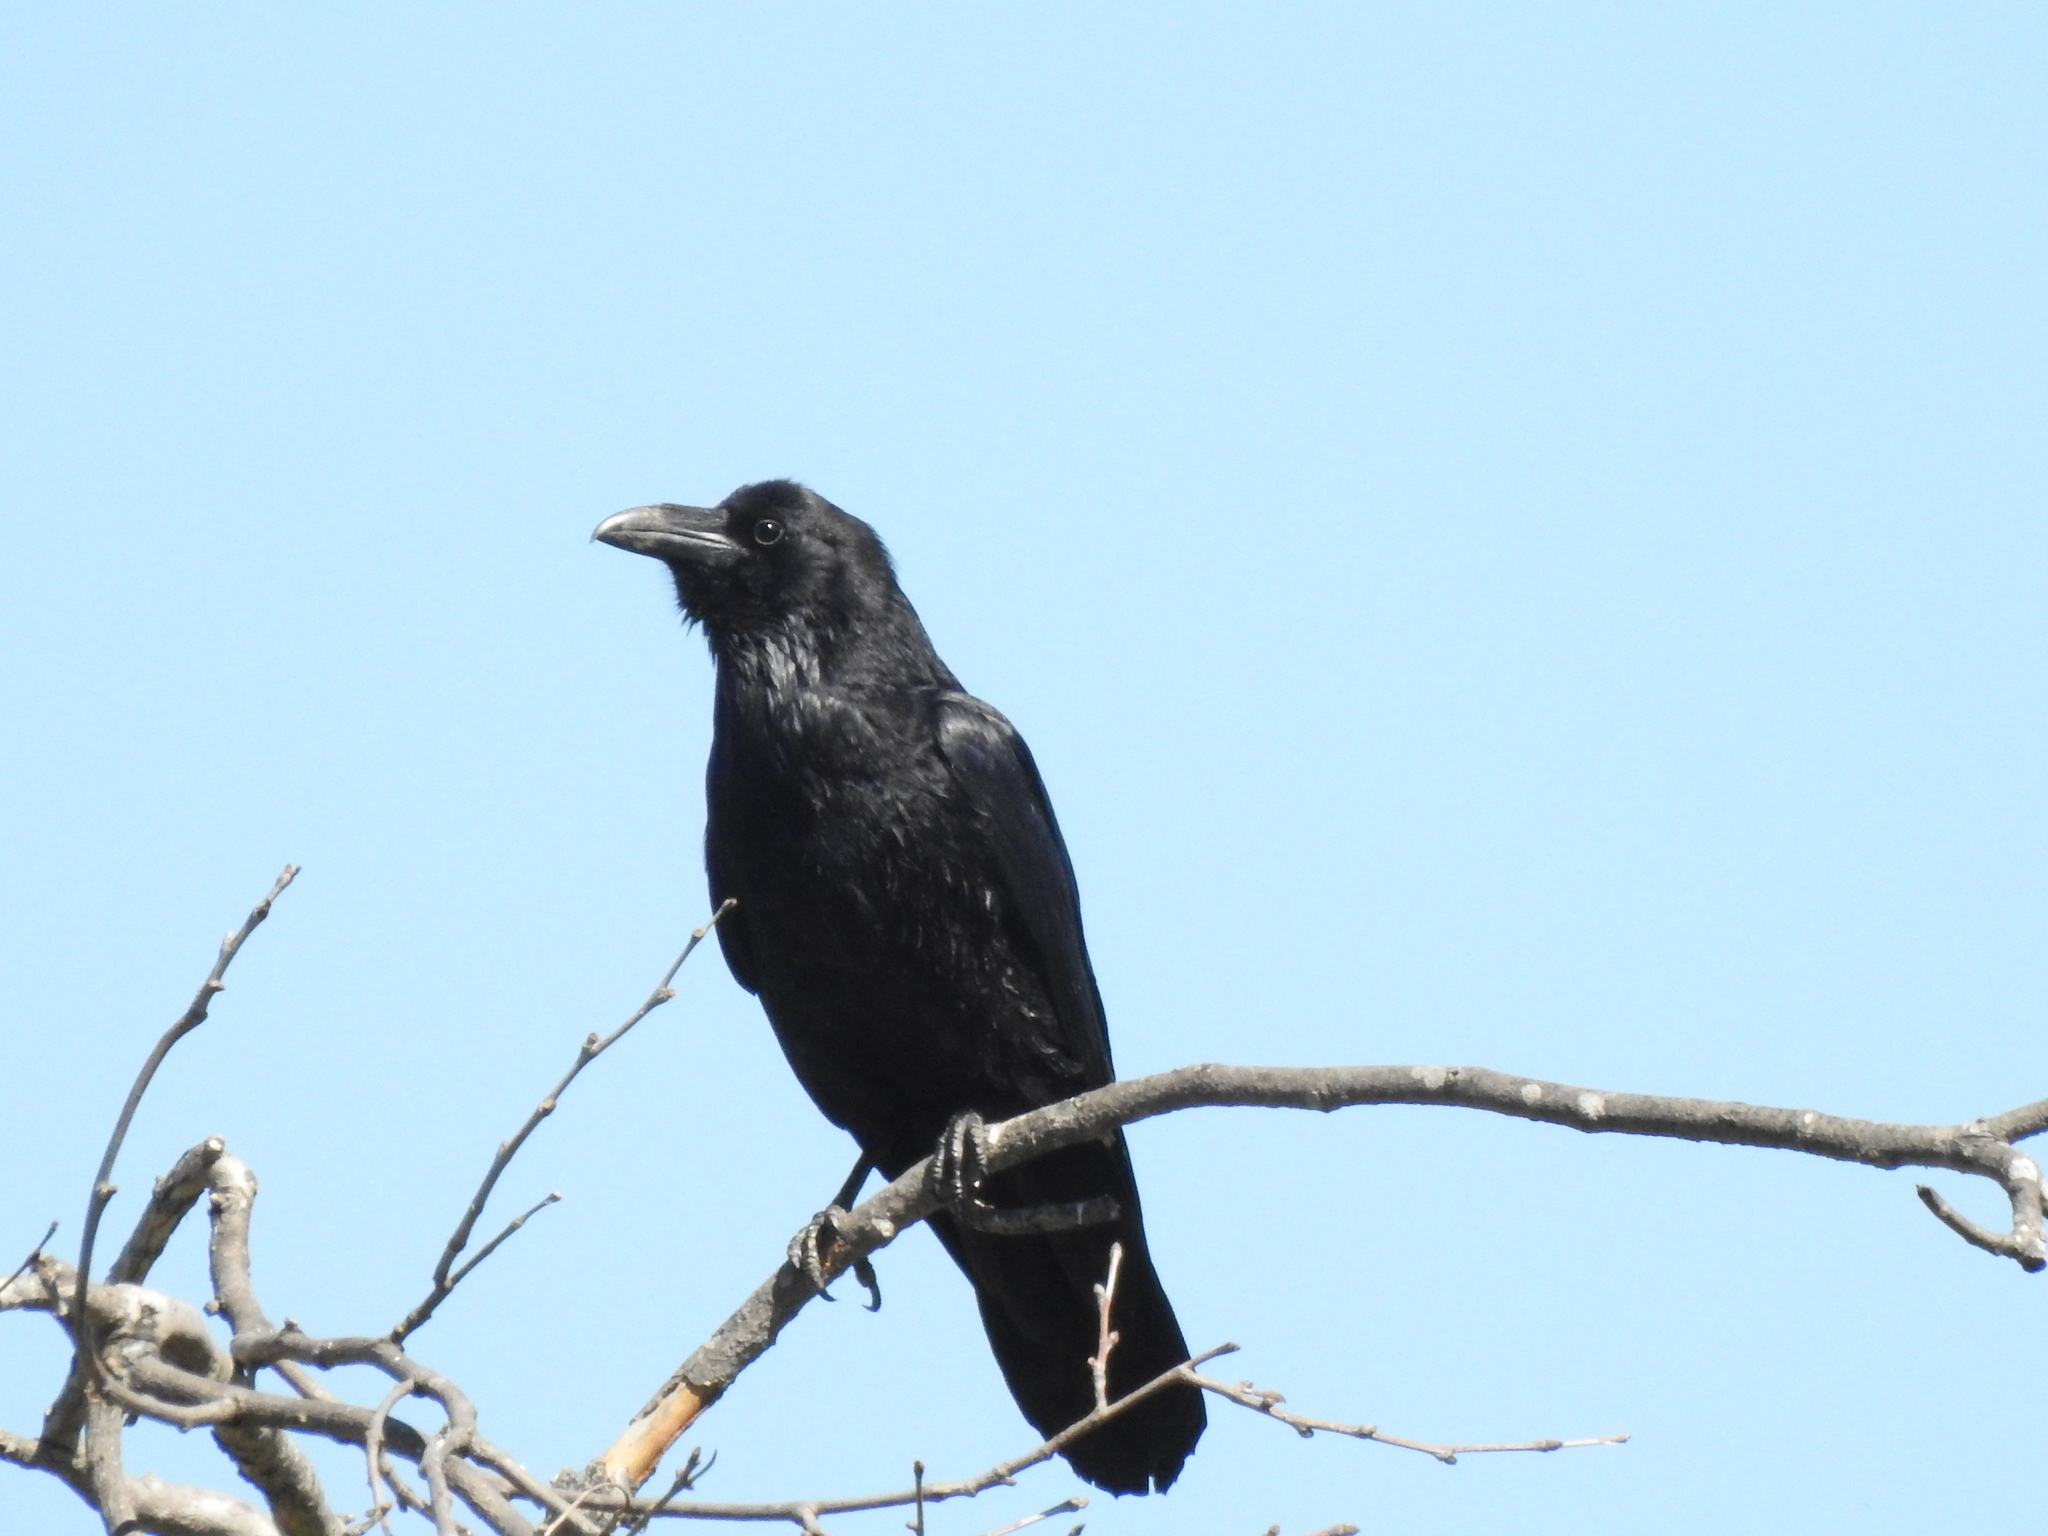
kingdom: Animalia
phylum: Chordata
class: Aves
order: Passeriformes
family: Corvidae
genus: Corvus
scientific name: Corvus corax
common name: Common raven
